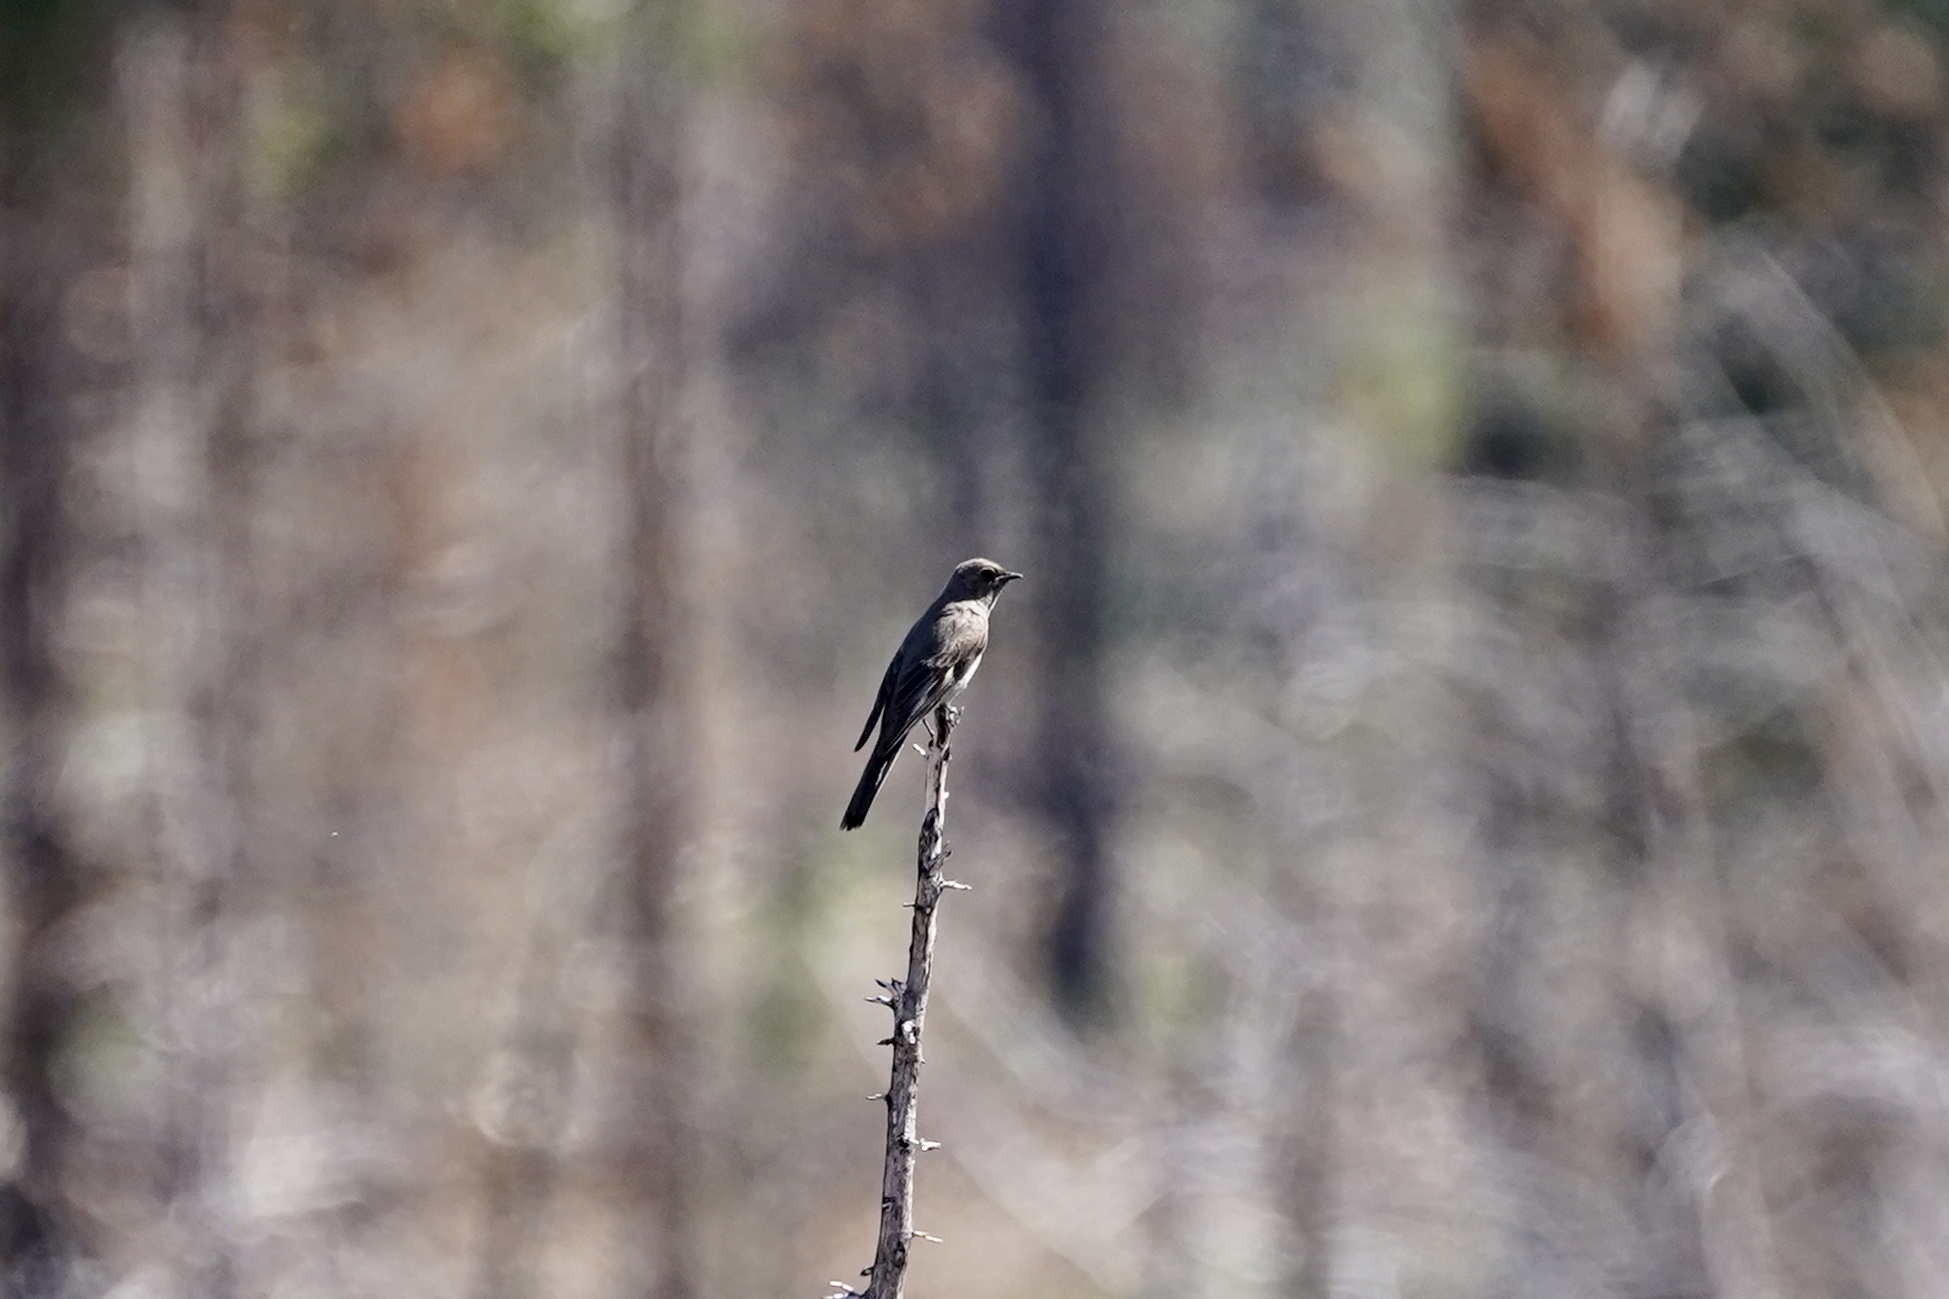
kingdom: Animalia
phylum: Chordata
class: Aves
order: Passeriformes
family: Turdidae
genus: Myadestes
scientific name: Myadestes townsendi
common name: Townsend's solitaire
